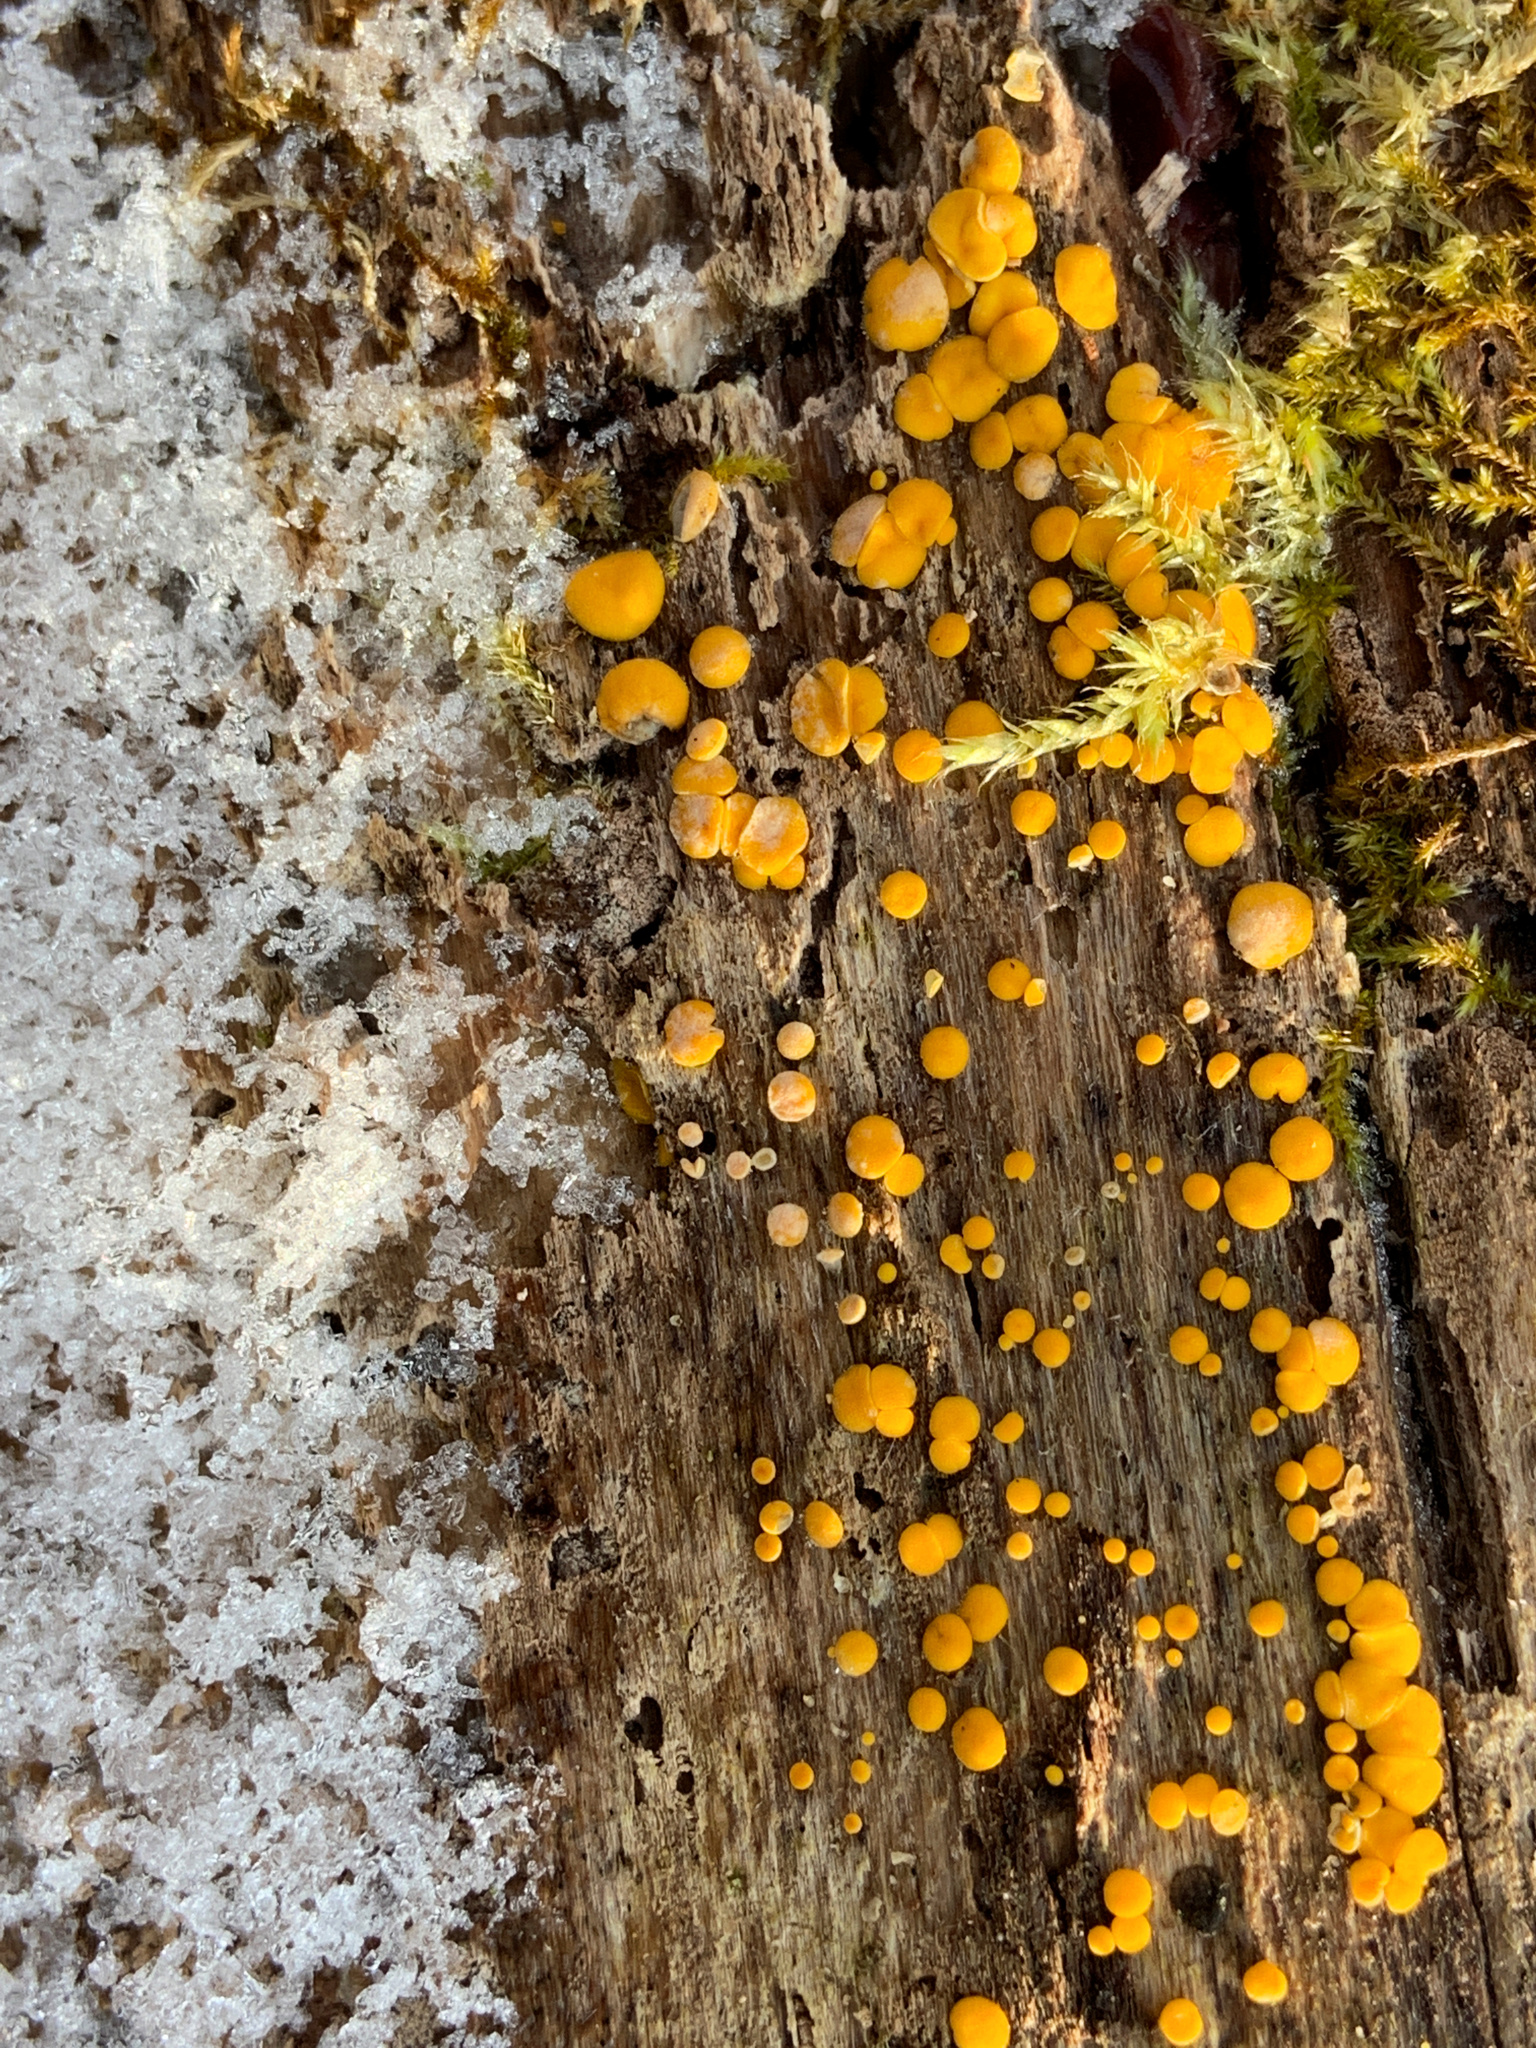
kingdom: Fungi
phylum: Ascomycota
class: Leotiomycetes
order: Helotiales
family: Pezizellaceae
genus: Calycina
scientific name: Calycina citrina
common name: Yellow fairy cups
